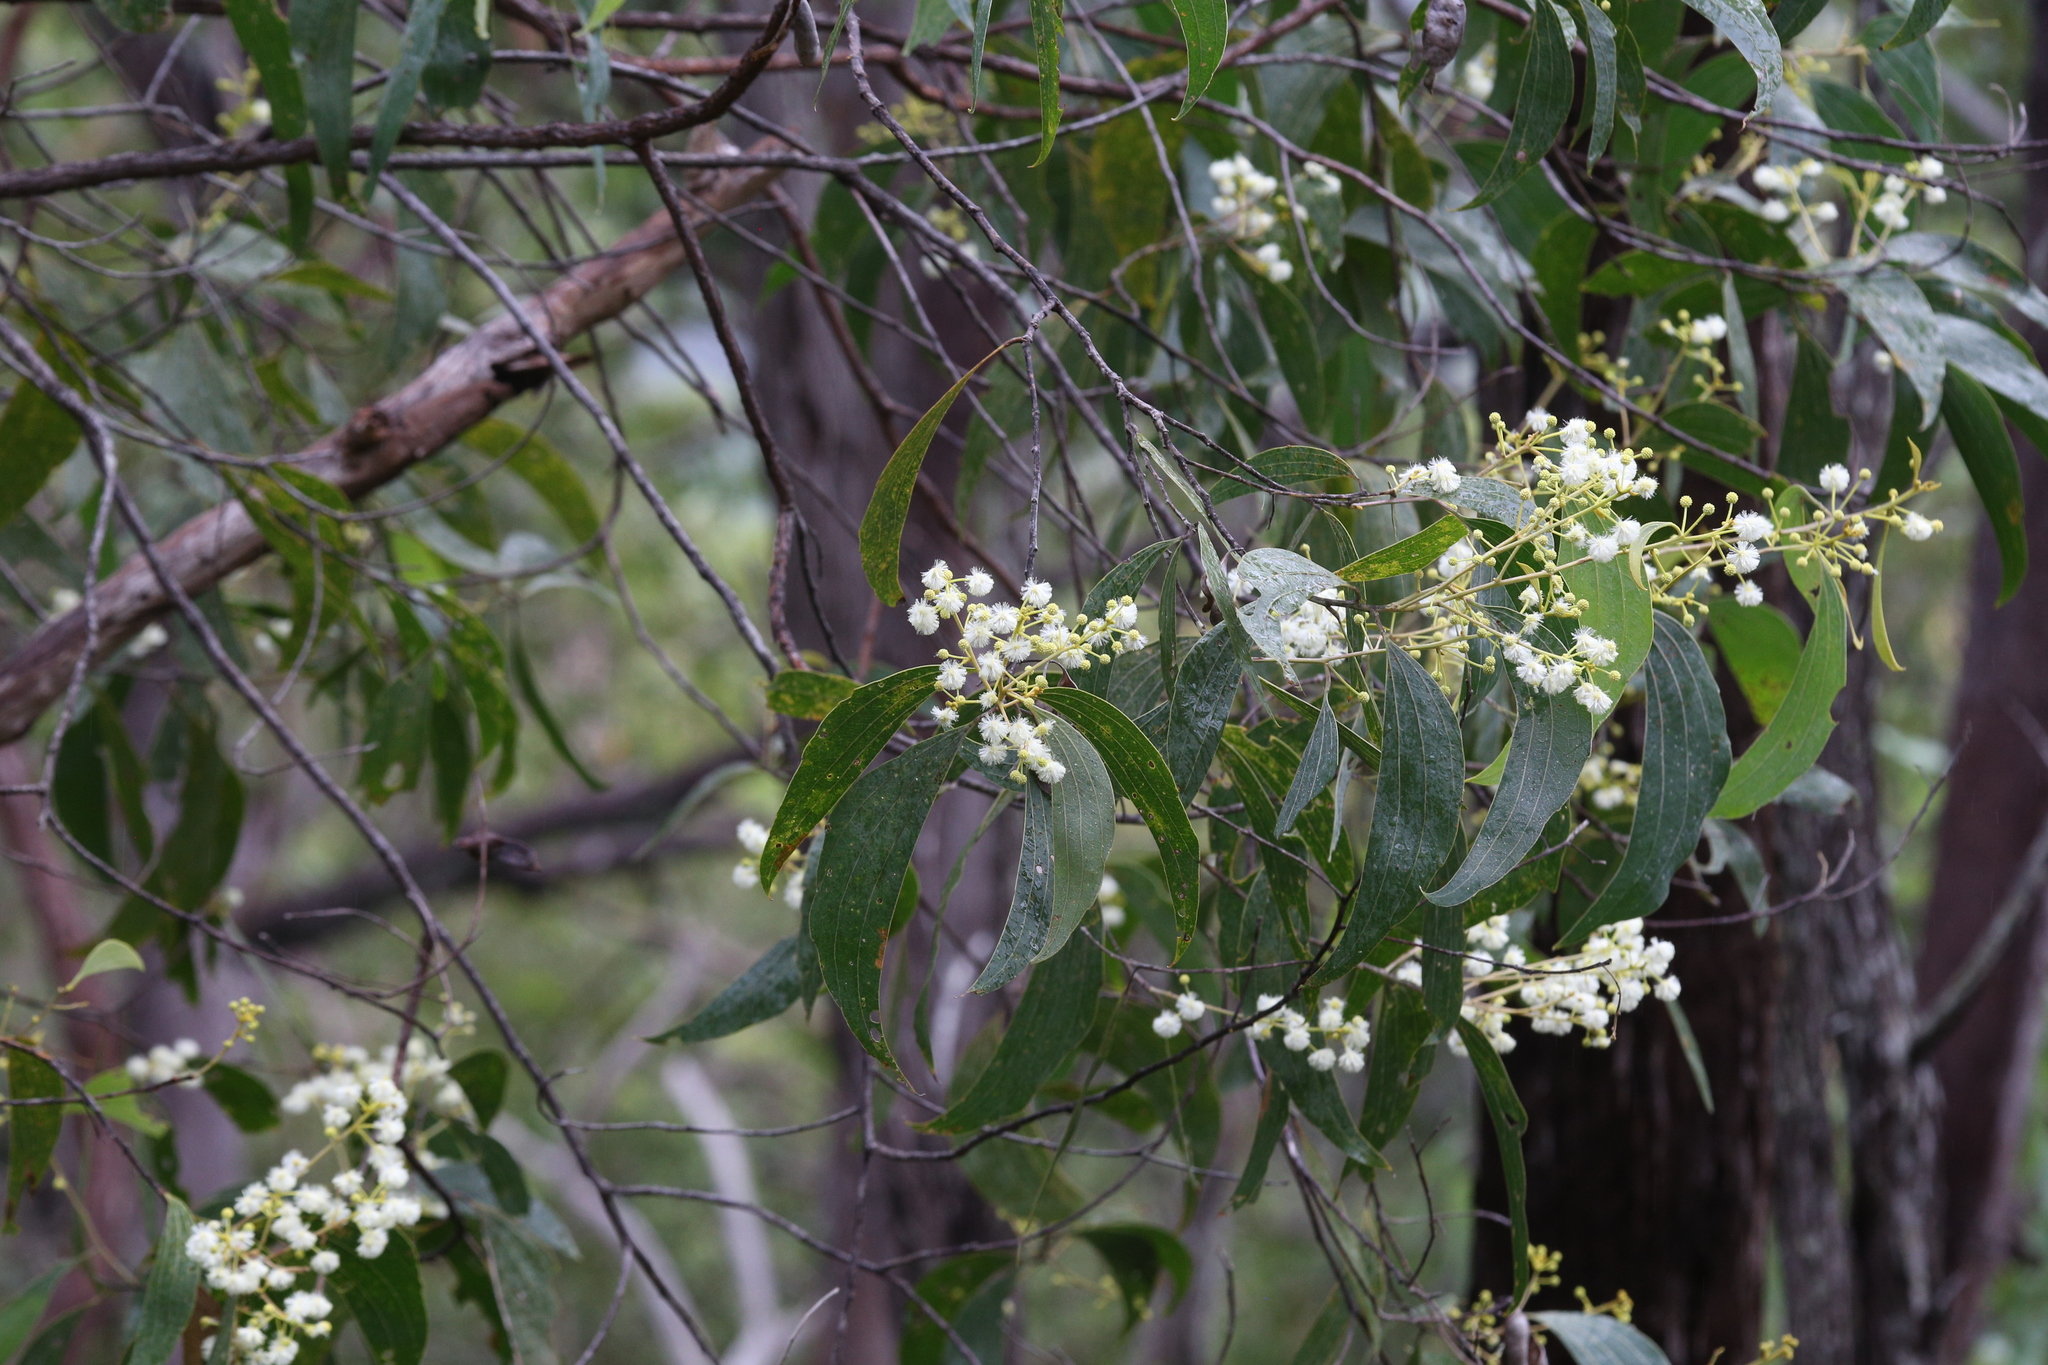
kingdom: Plantae
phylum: Tracheophyta
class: Magnoliopsida
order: Fabales
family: Fabaceae
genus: Acacia
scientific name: Acacia flavescens
